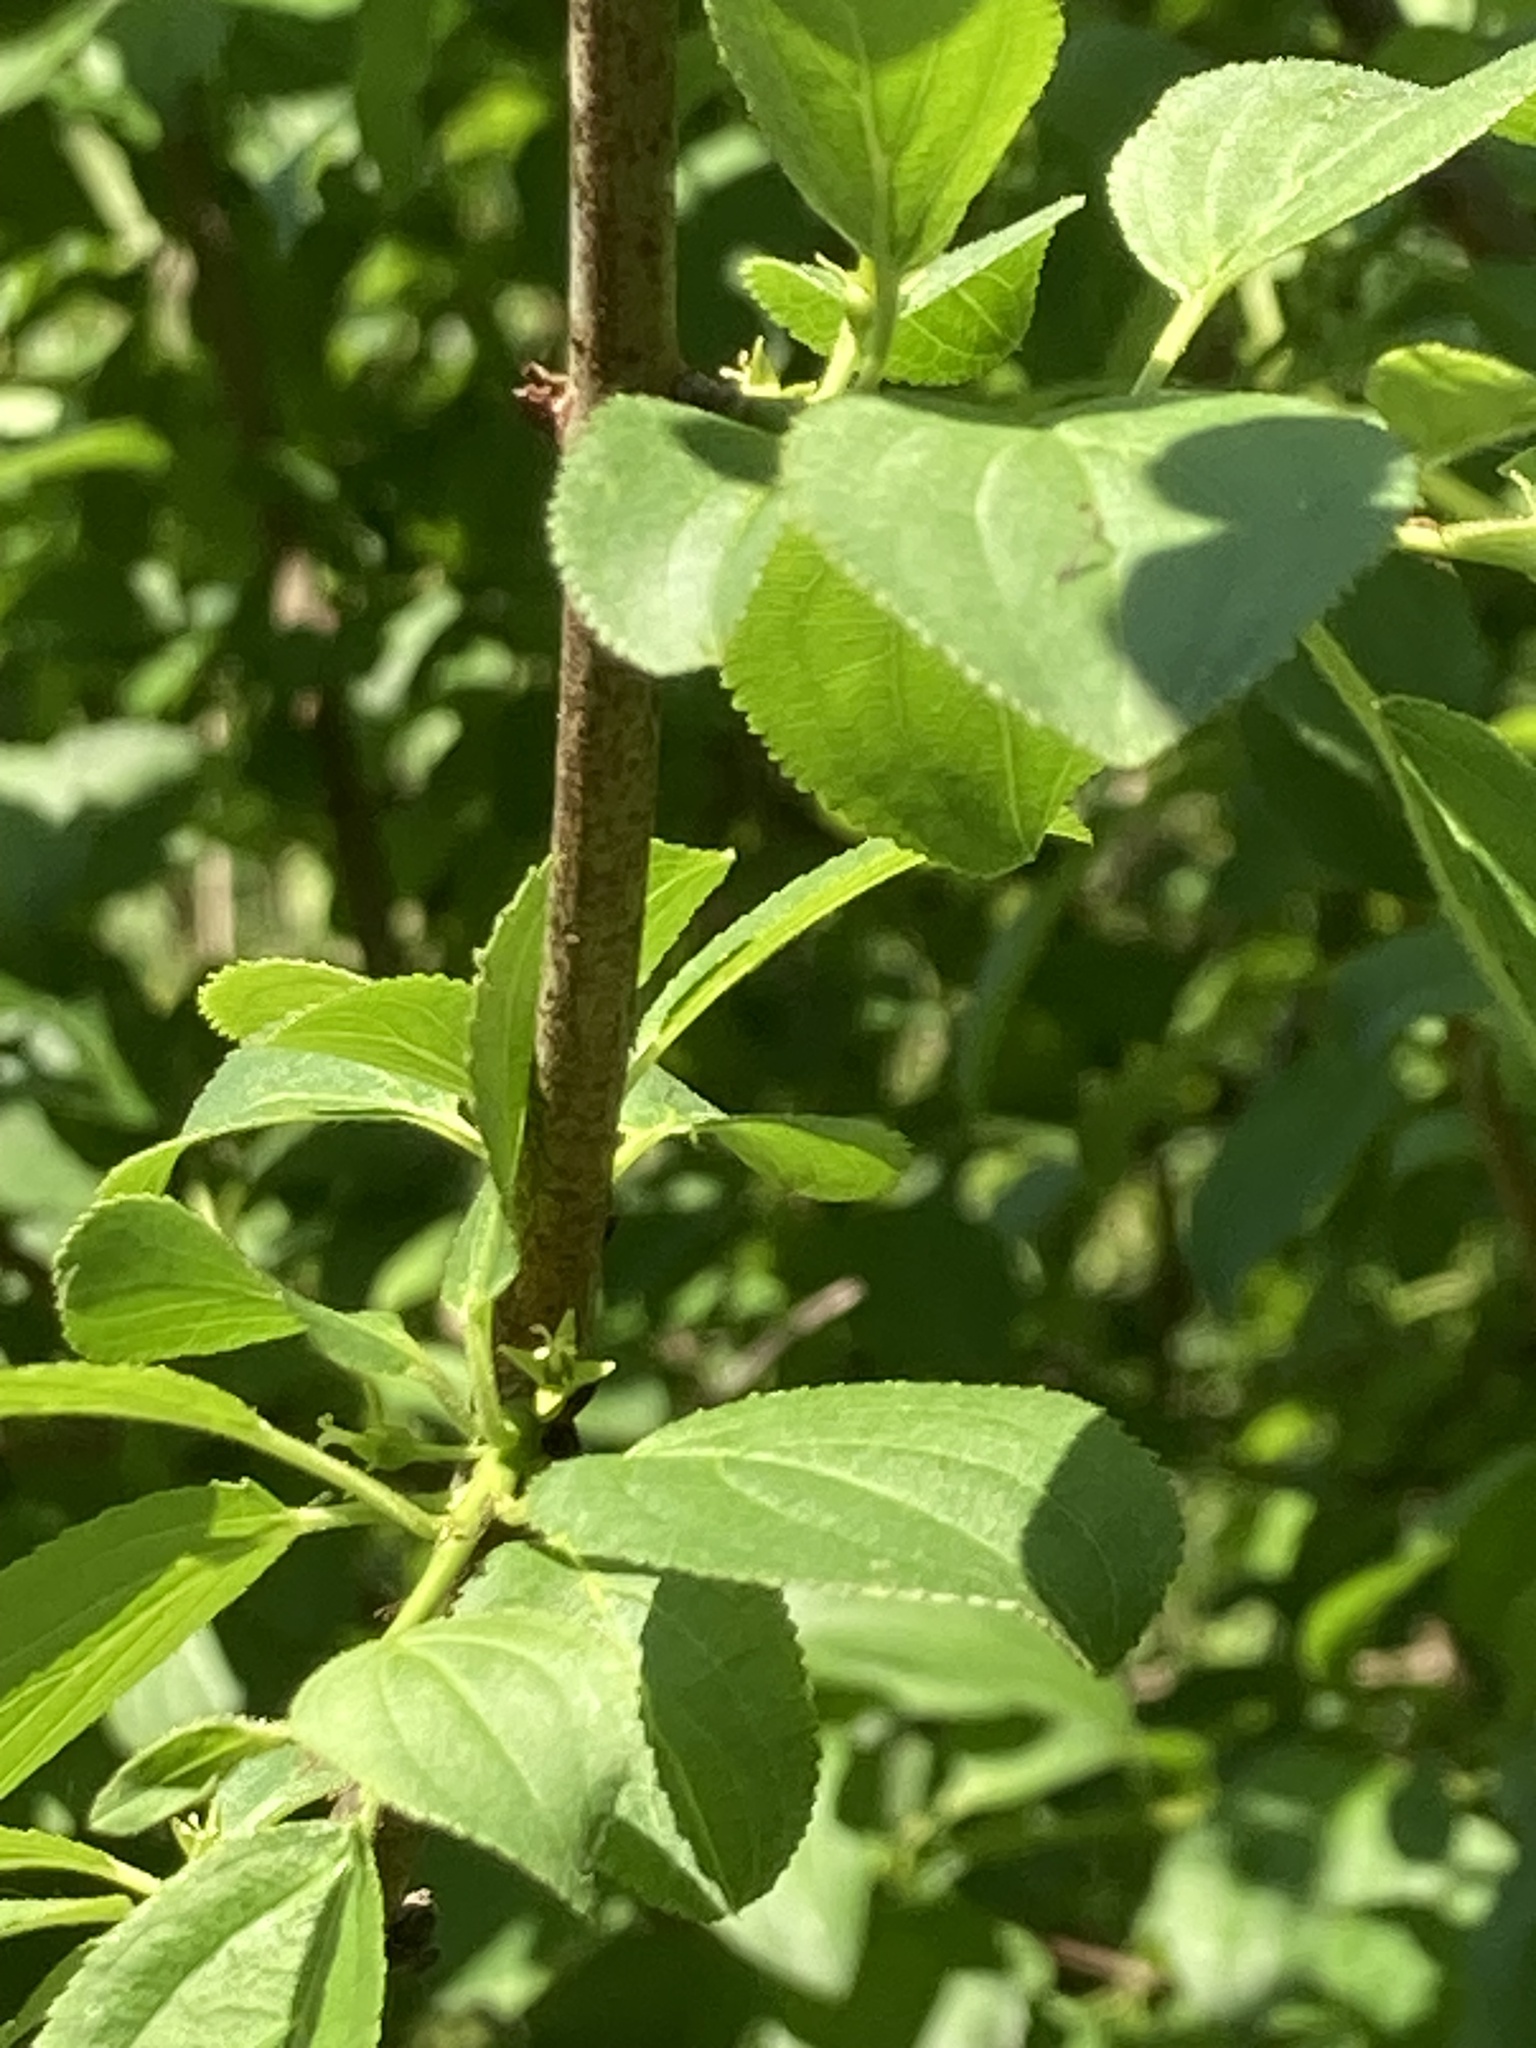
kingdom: Plantae
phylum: Tracheophyta
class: Magnoliopsida
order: Rosales
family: Rhamnaceae
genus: Rhamnus
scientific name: Rhamnus cathartica
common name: Common buckthorn
